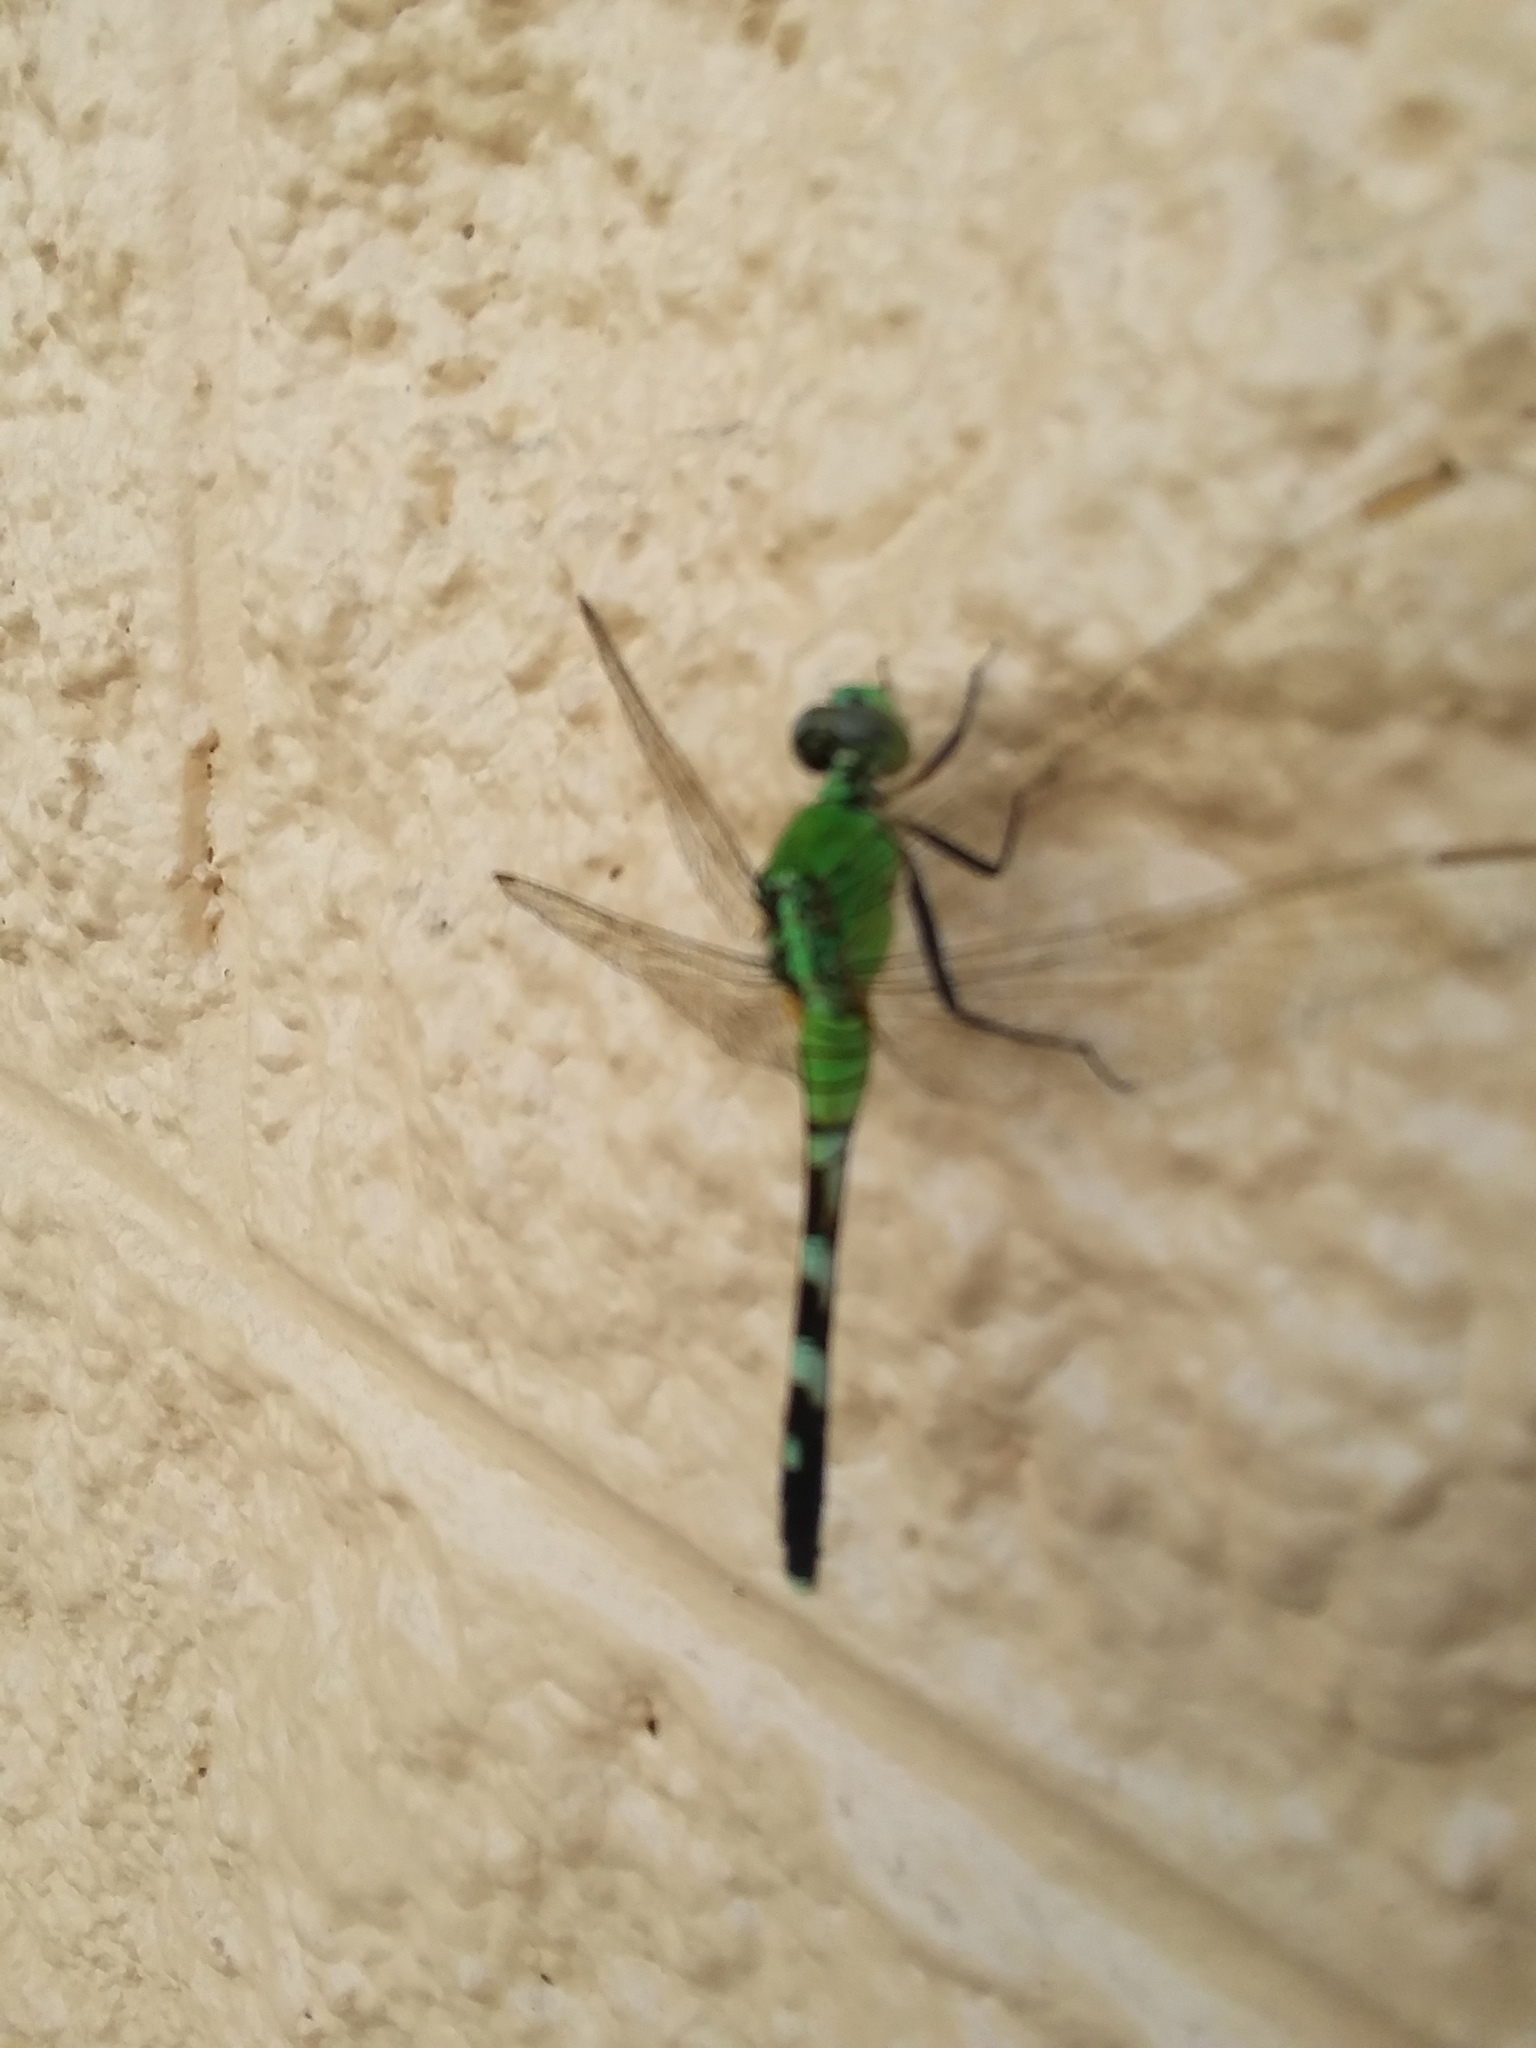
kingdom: Animalia
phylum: Arthropoda
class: Insecta
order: Odonata
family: Libellulidae
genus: Erythemis
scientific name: Erythemis simplicicollis
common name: Eastern pondhawk
